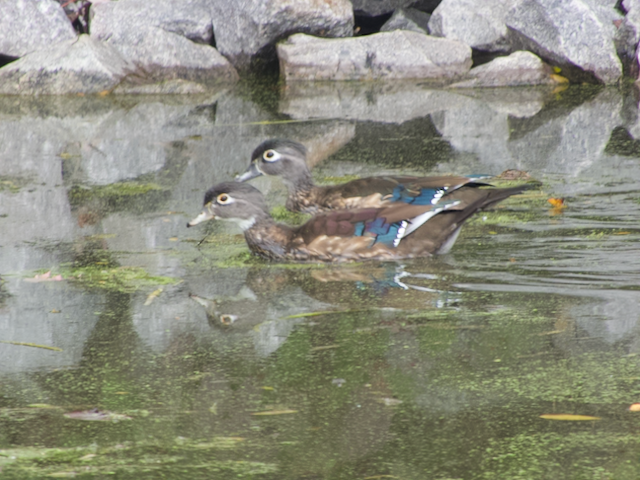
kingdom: Animalia
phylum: Chordata
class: Aves
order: Anseriformes
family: Anatidae
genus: Aix
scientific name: Aix sponsa
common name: Wood duck
